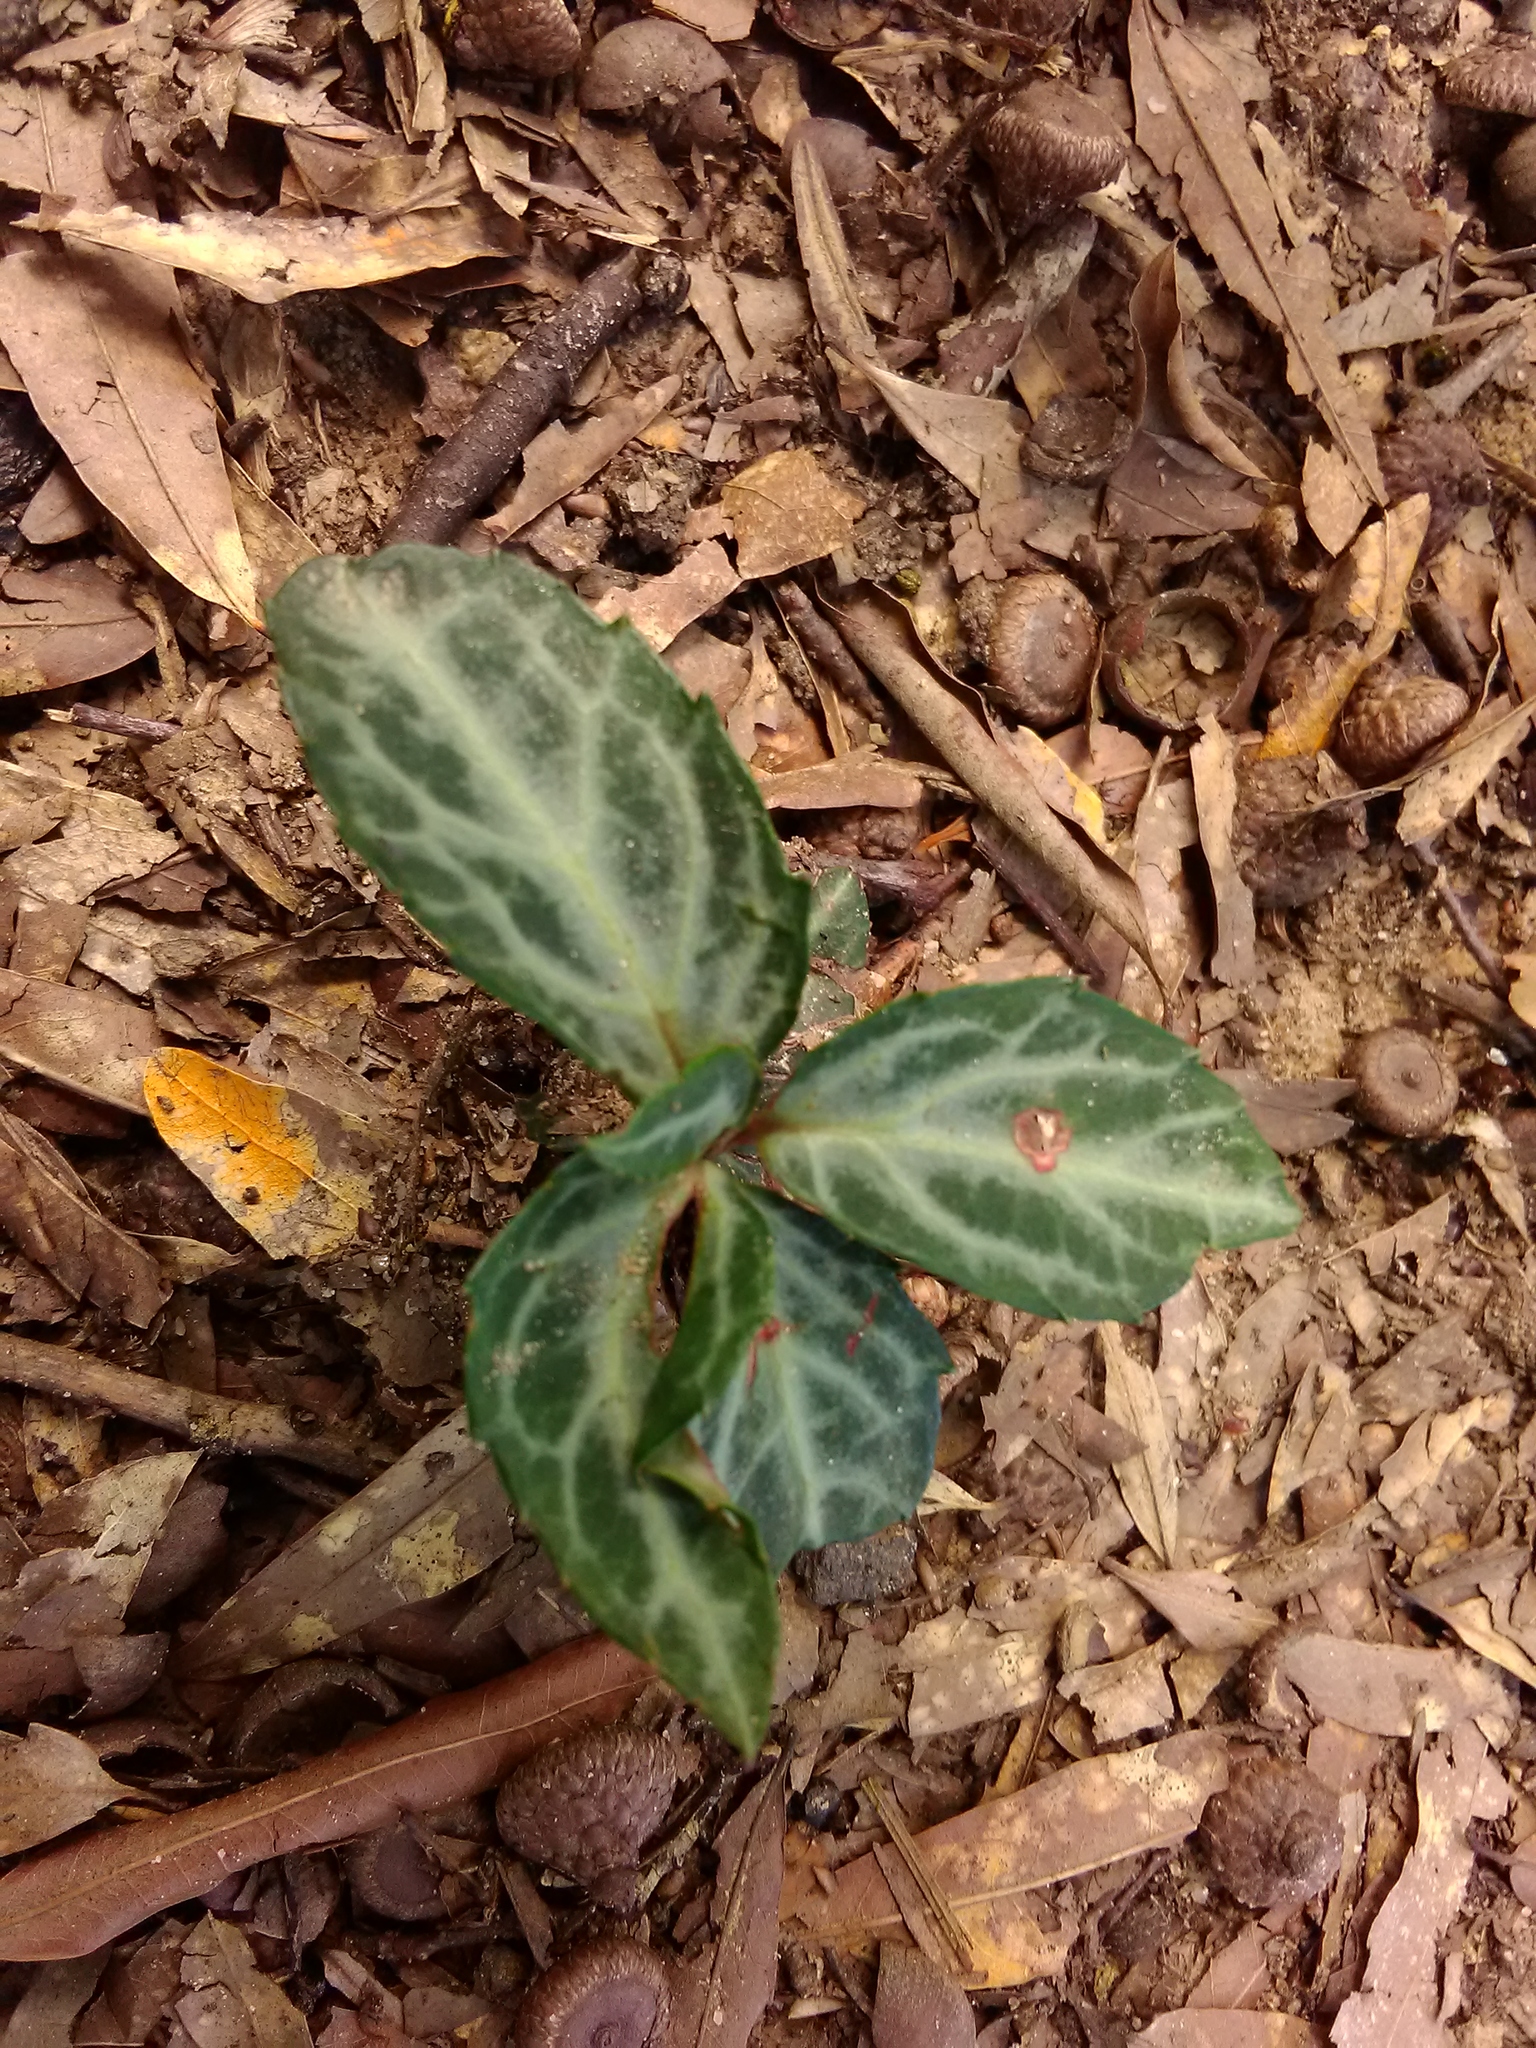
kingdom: Plantae
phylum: Tracheophyta
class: Magnoliopsida
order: Ericales
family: Ericaceae
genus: Chimaphila
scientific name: Chimaphila maculata
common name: Spotted pipsissewa
